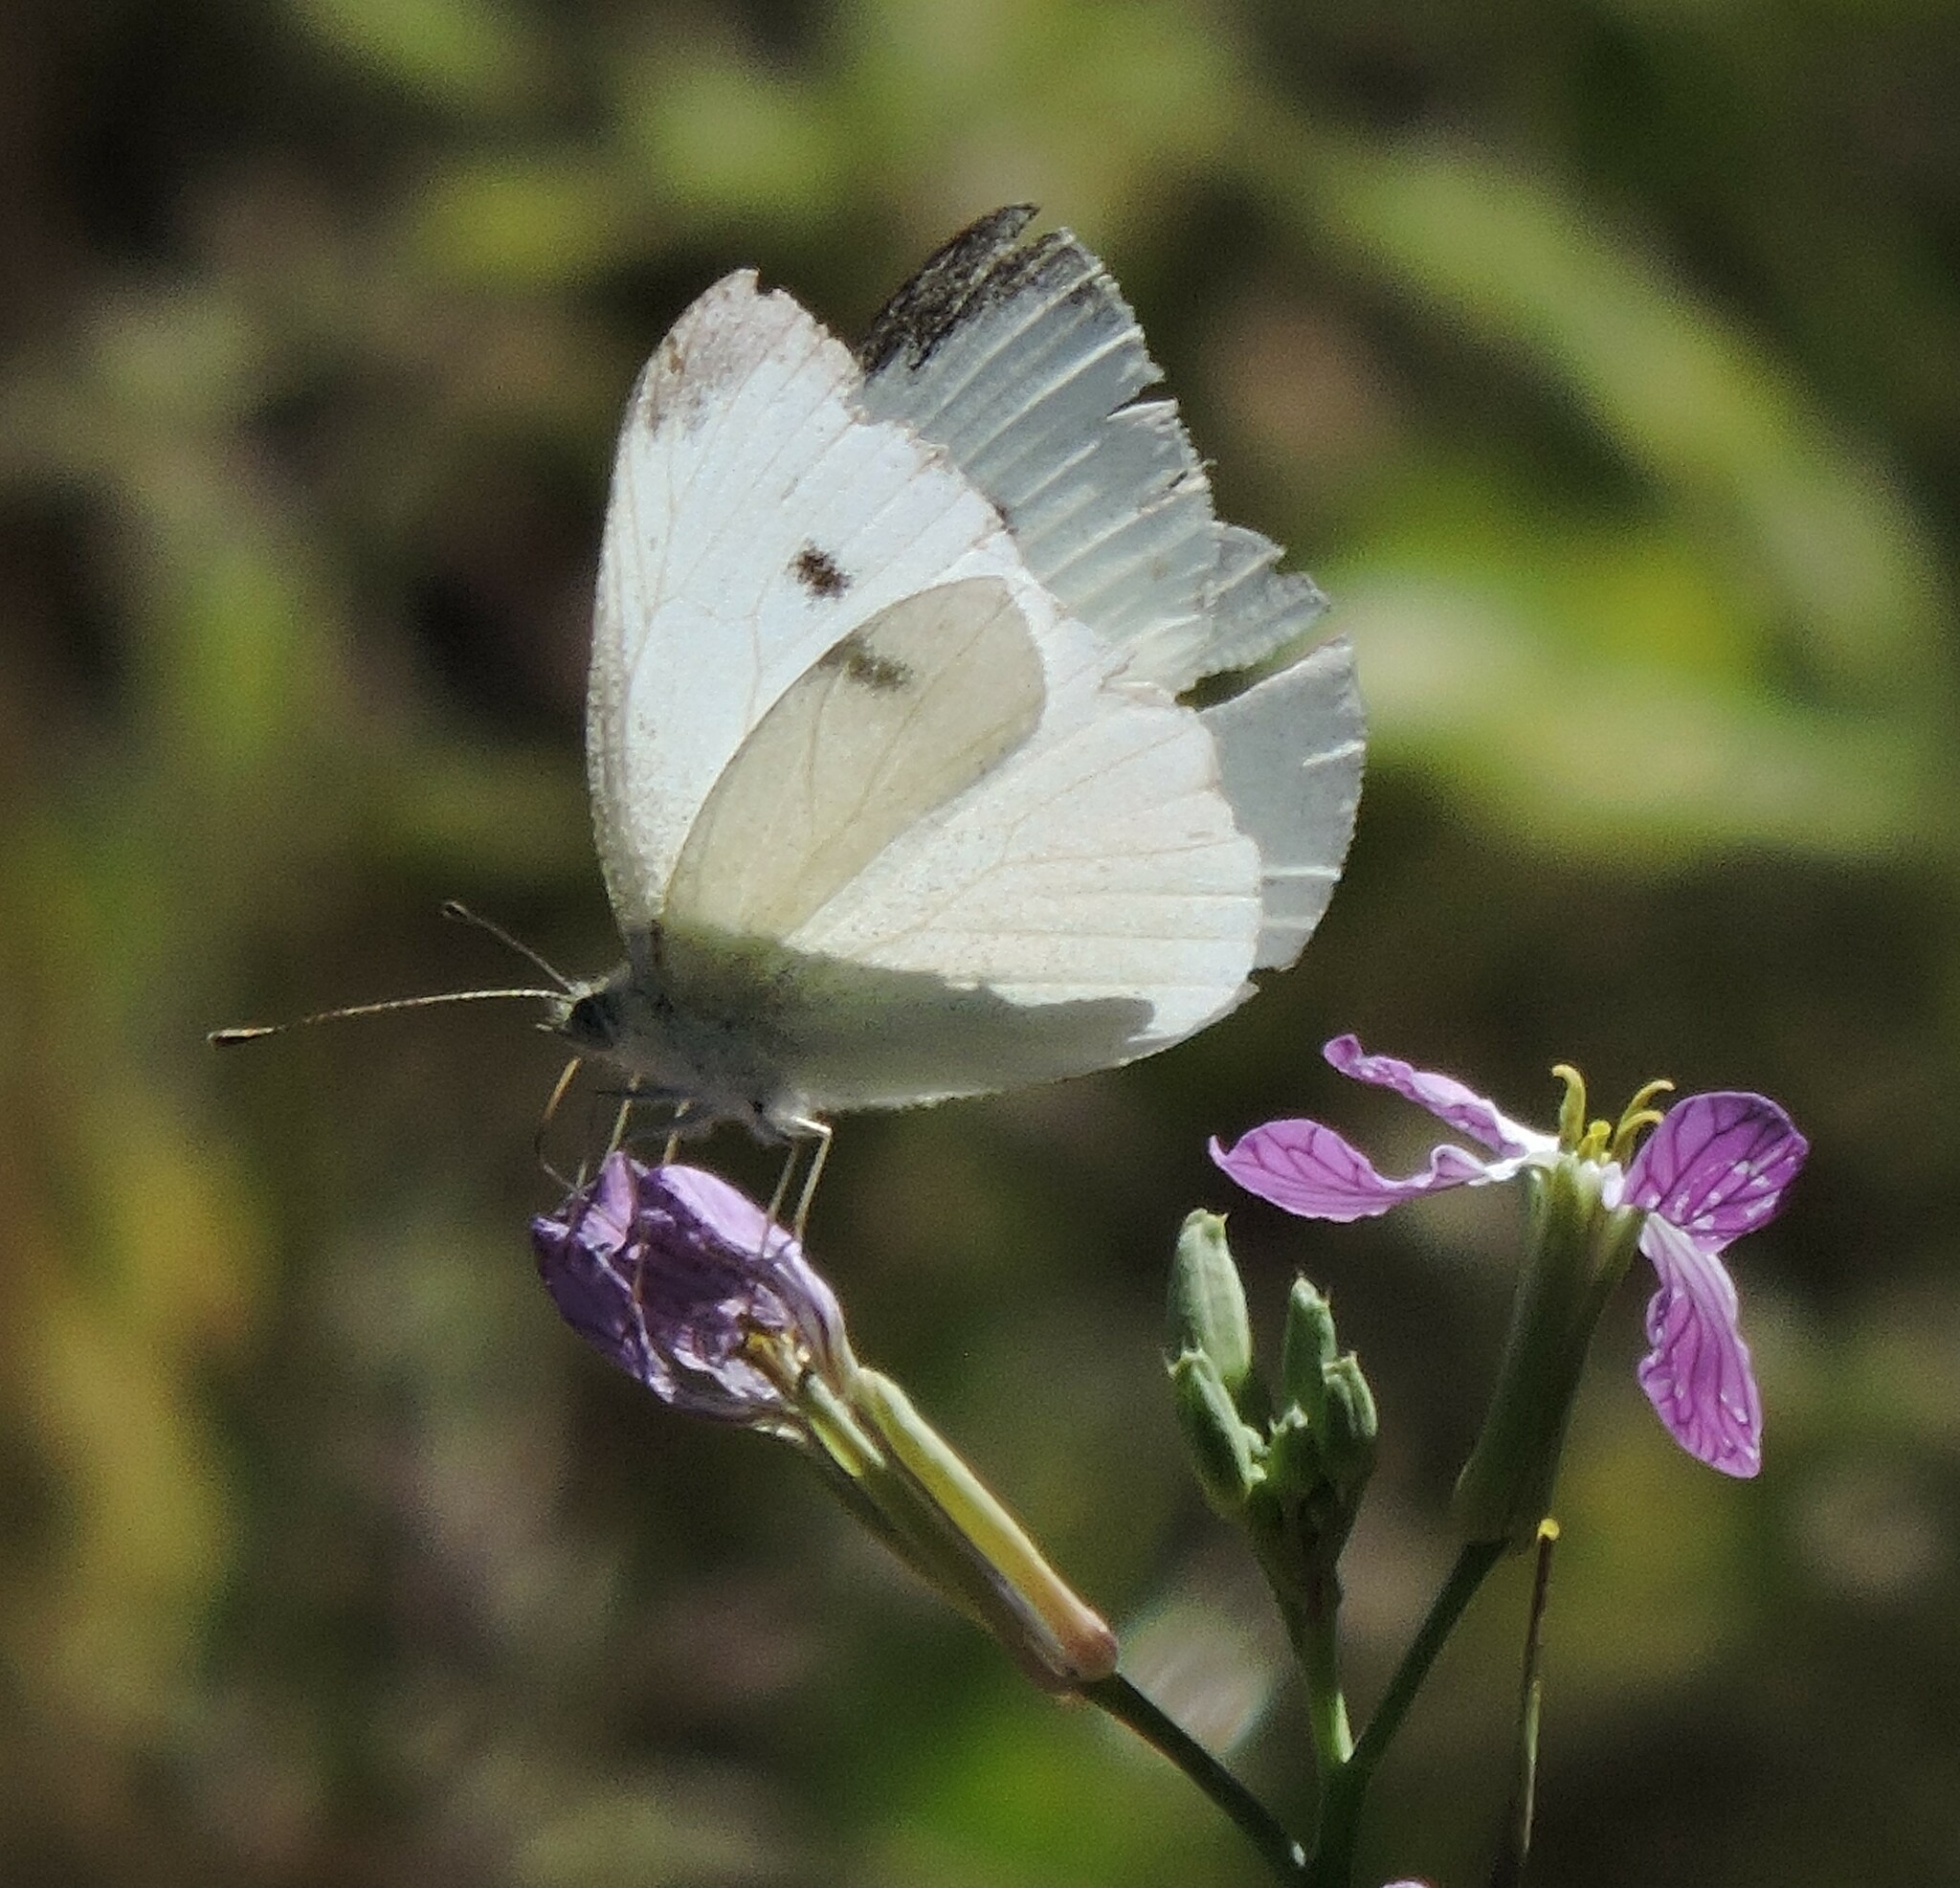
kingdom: Animalia
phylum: Arthropoda
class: Insecta
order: Lepidoptera
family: Pieridae
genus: Pieris
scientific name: Pieris rapae
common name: Small white
